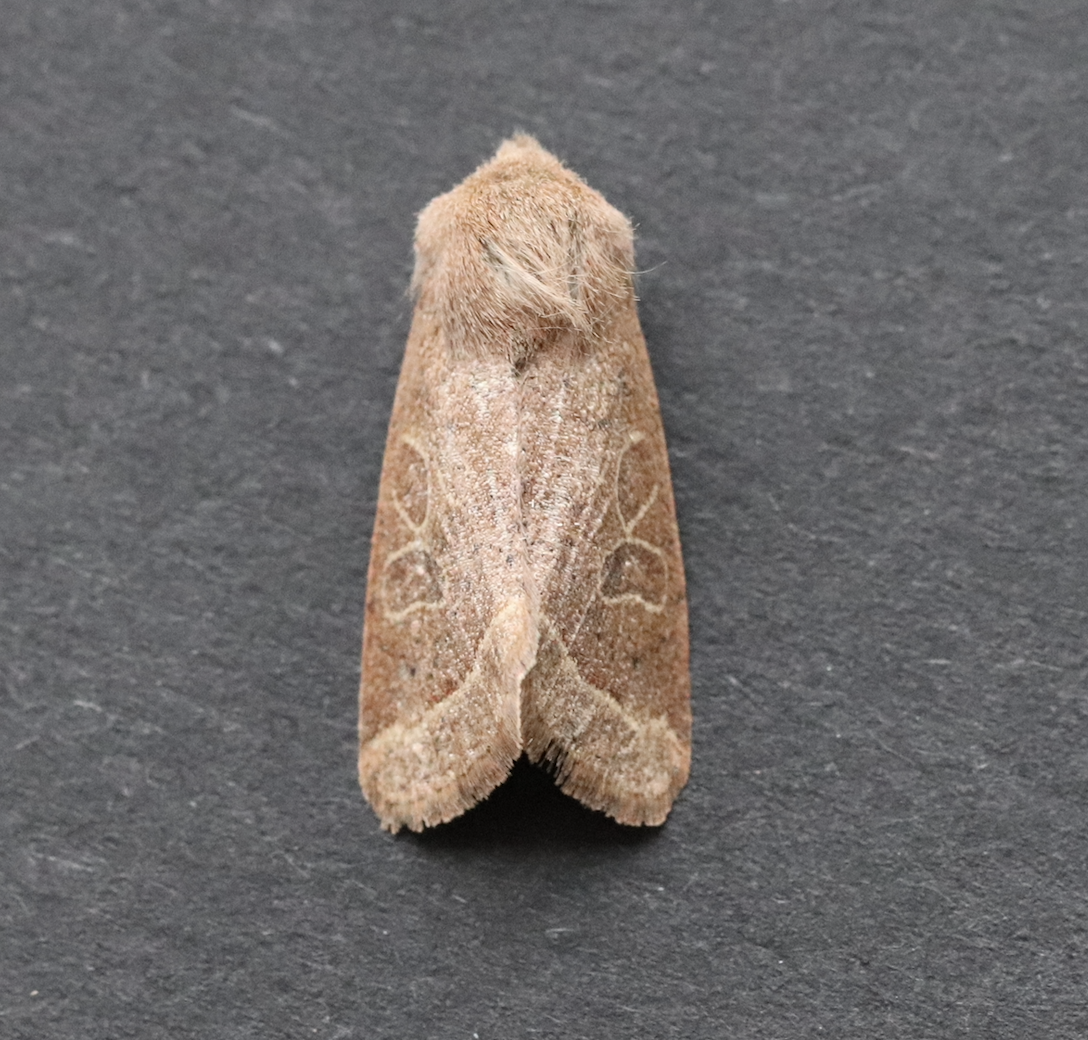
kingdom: Animalia
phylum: Arthropoda
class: Insecta
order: Lepidoptera
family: Noctuidae
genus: Orthosia
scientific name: Orthosia cerasi
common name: Common quaker
